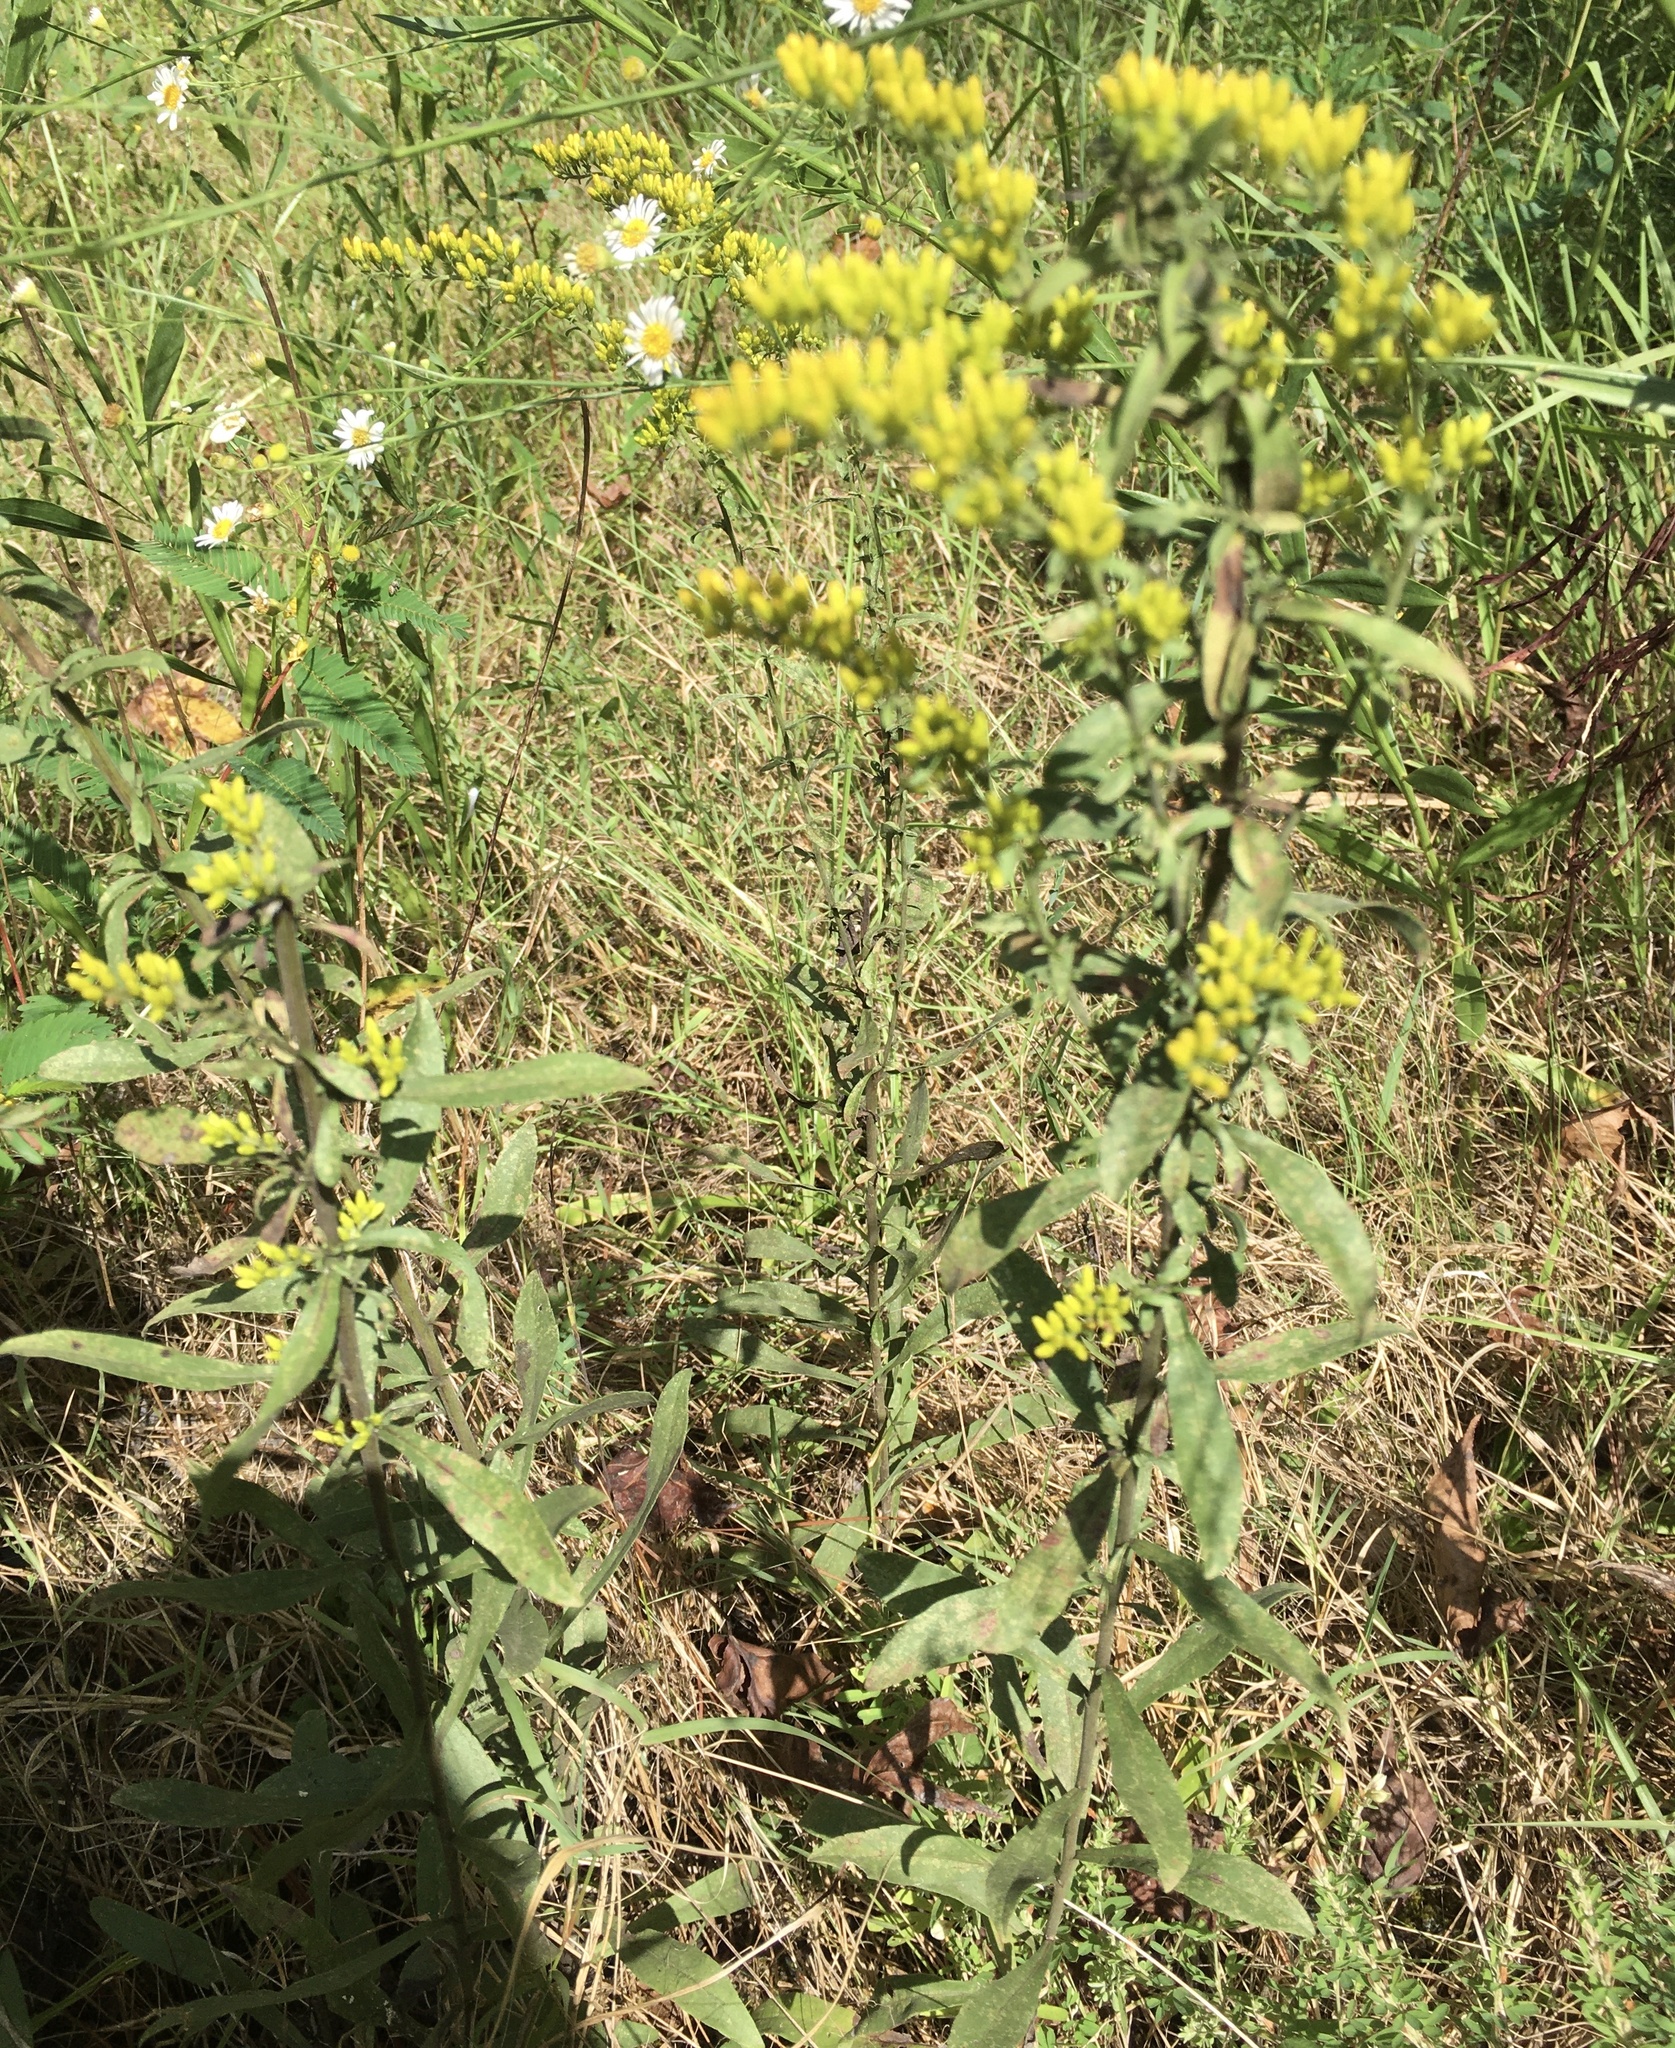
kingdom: Plantae
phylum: Tracheophyta
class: Magnoliopsida
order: Asterales
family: Asteraceae
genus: Solidago
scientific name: Solidago nemoralis
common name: Grey goldenrod
